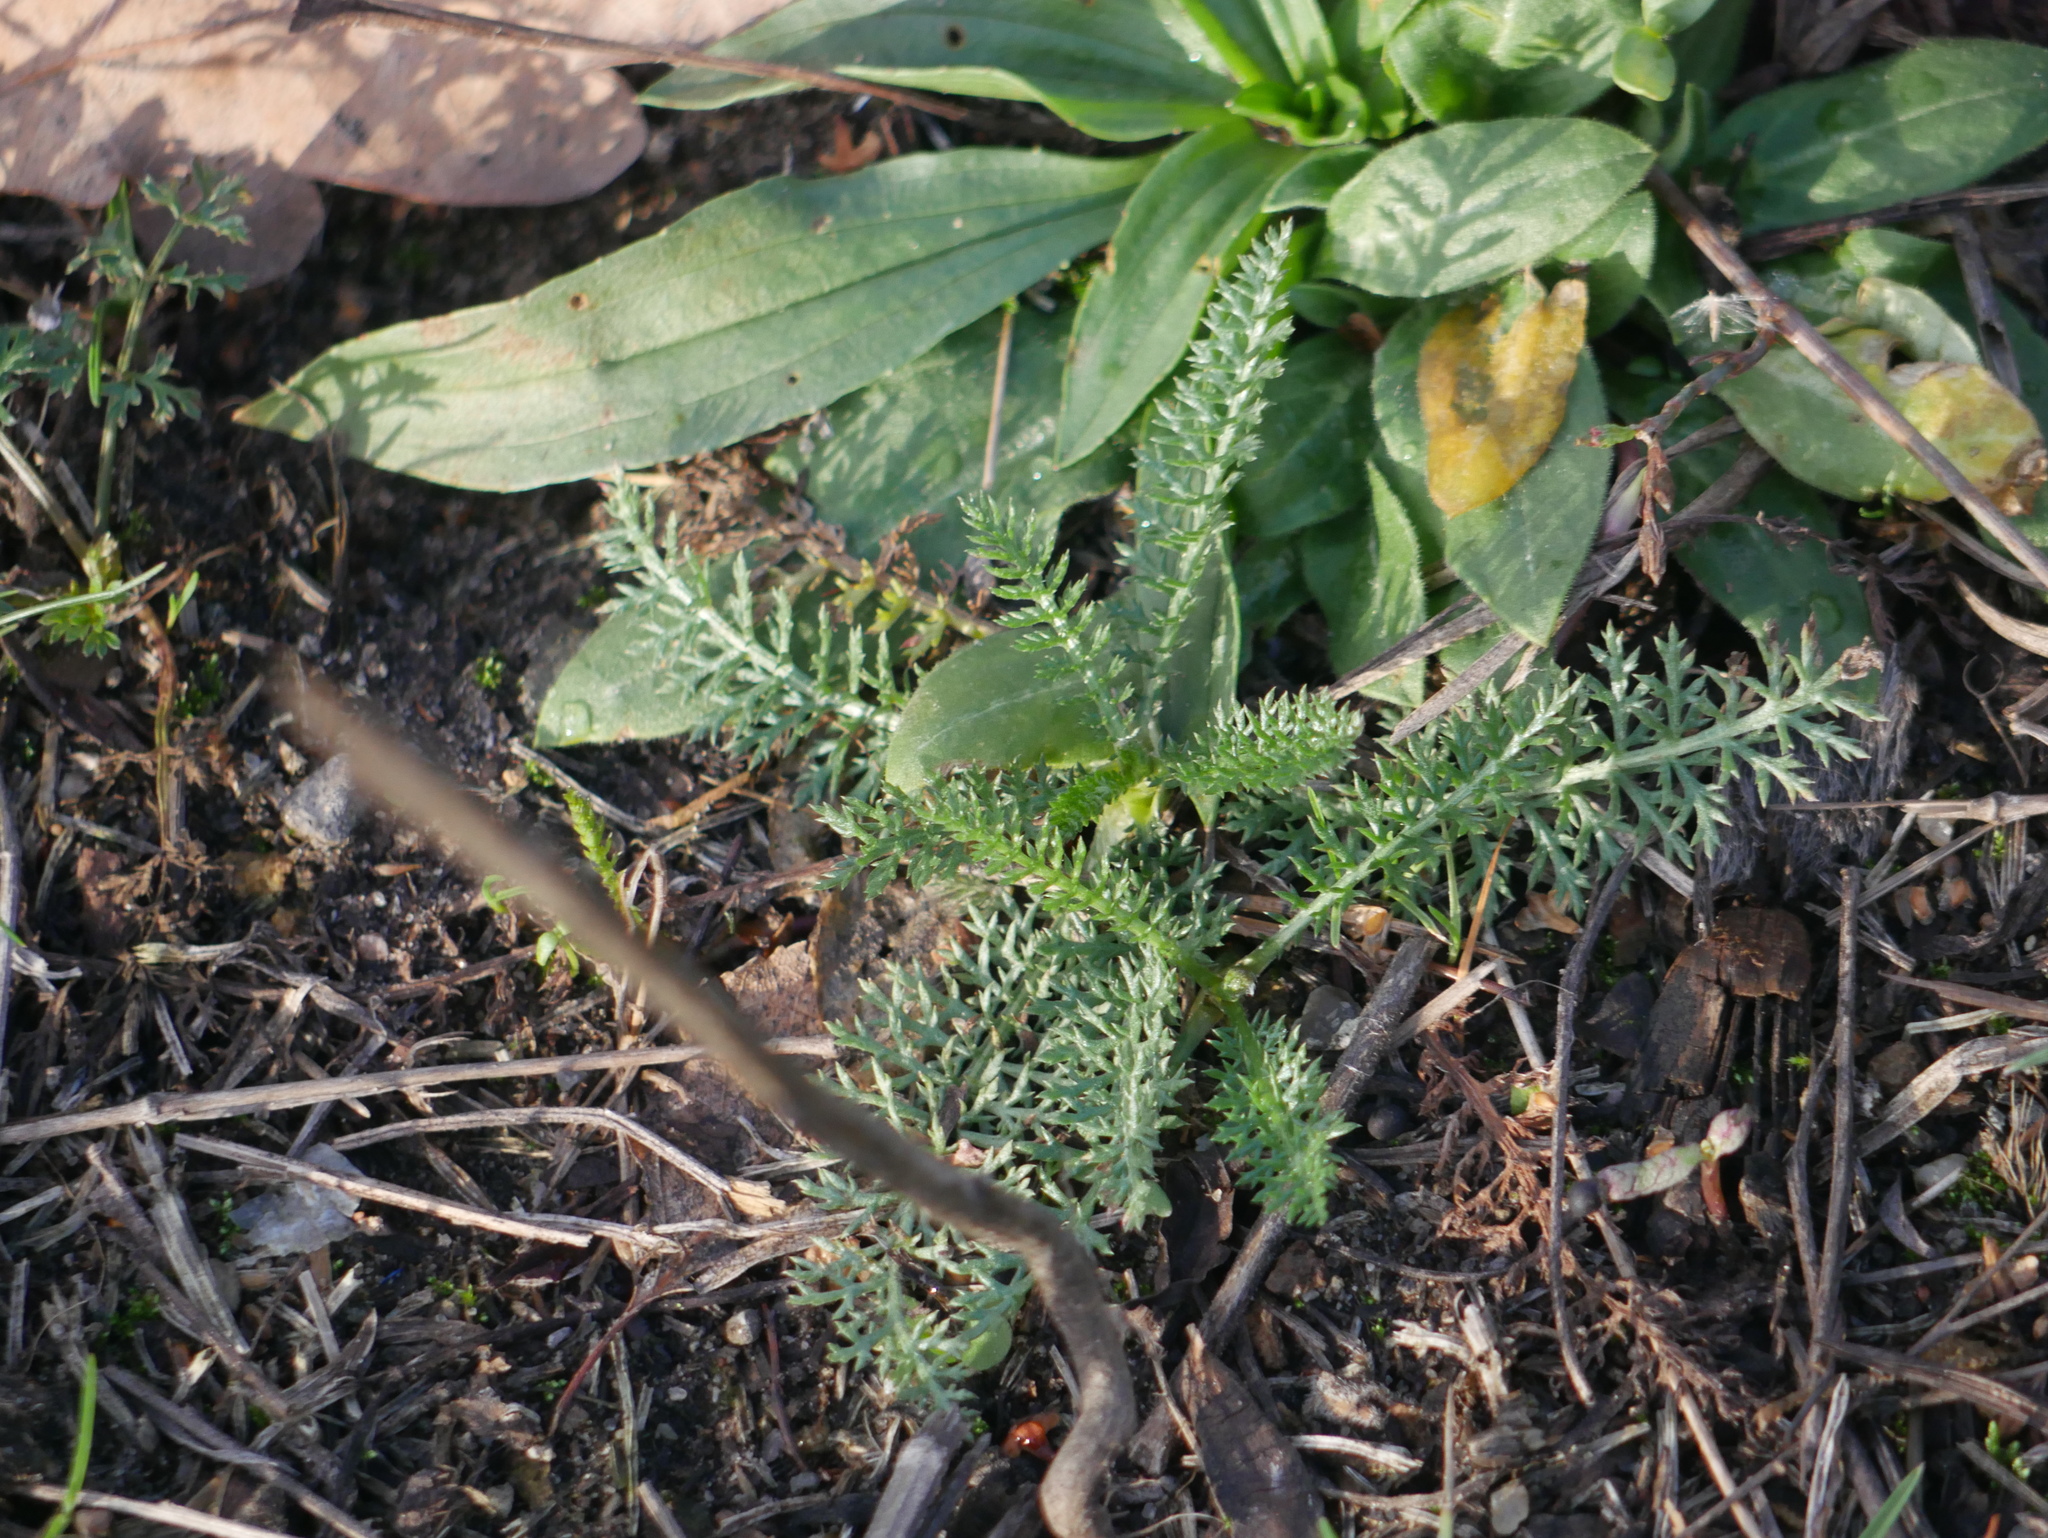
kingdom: Plantae
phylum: Tracheophyta
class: Magnoliopsida
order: Asterales
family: Asteraceae
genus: Achillea
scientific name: Achillea millefolium
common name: Yarrow
